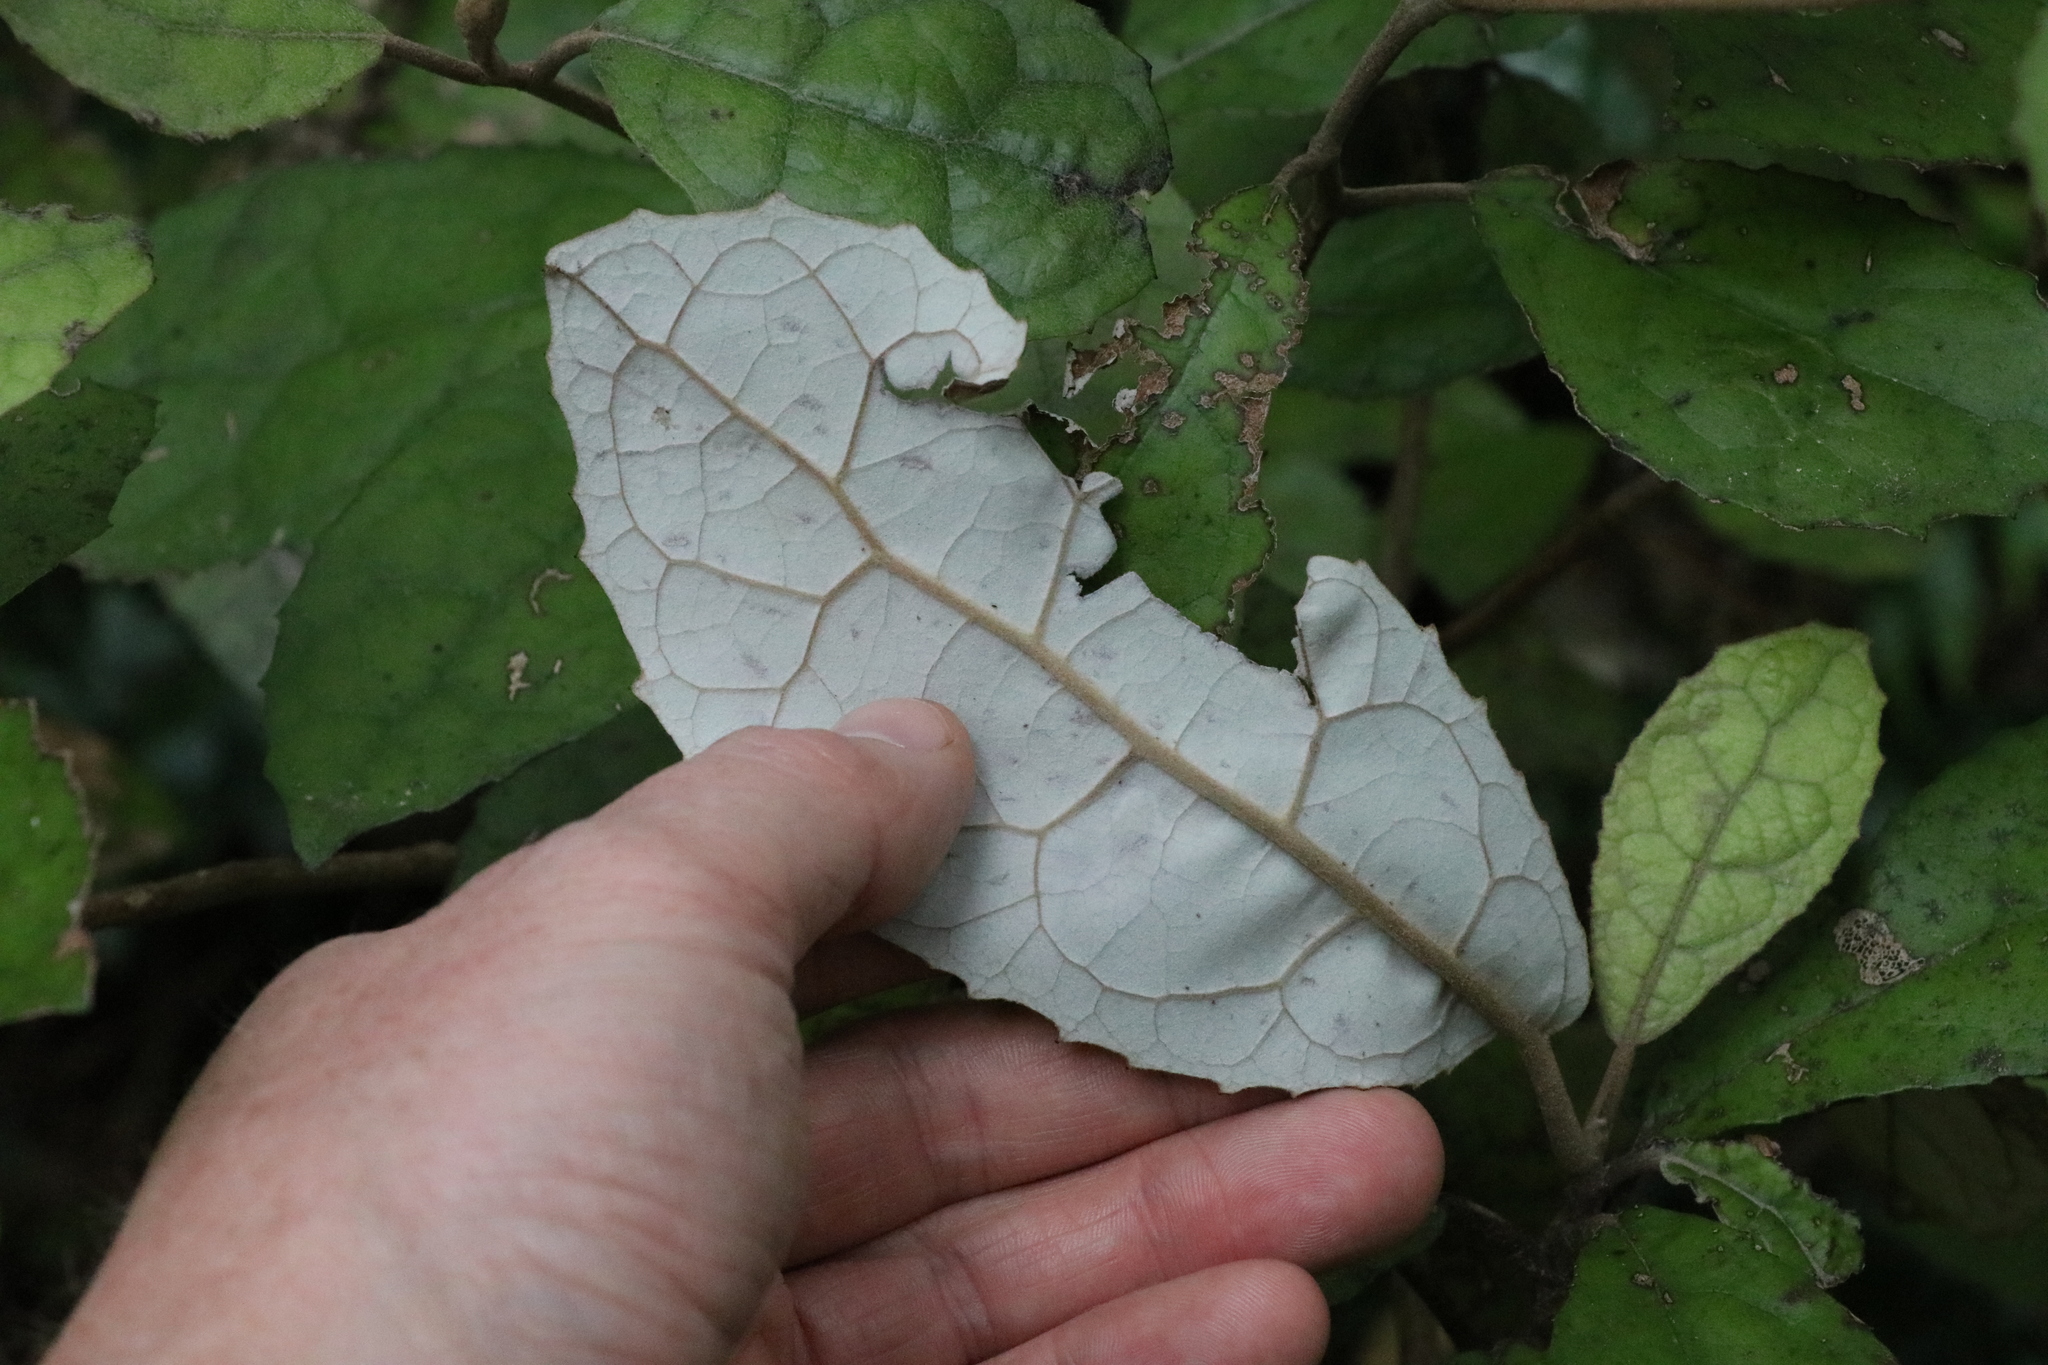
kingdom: Plantae
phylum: Tracheophyta
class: Magnoliopsida
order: Asterales
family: Asteraceae
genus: Olearia
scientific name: Olearia rani
